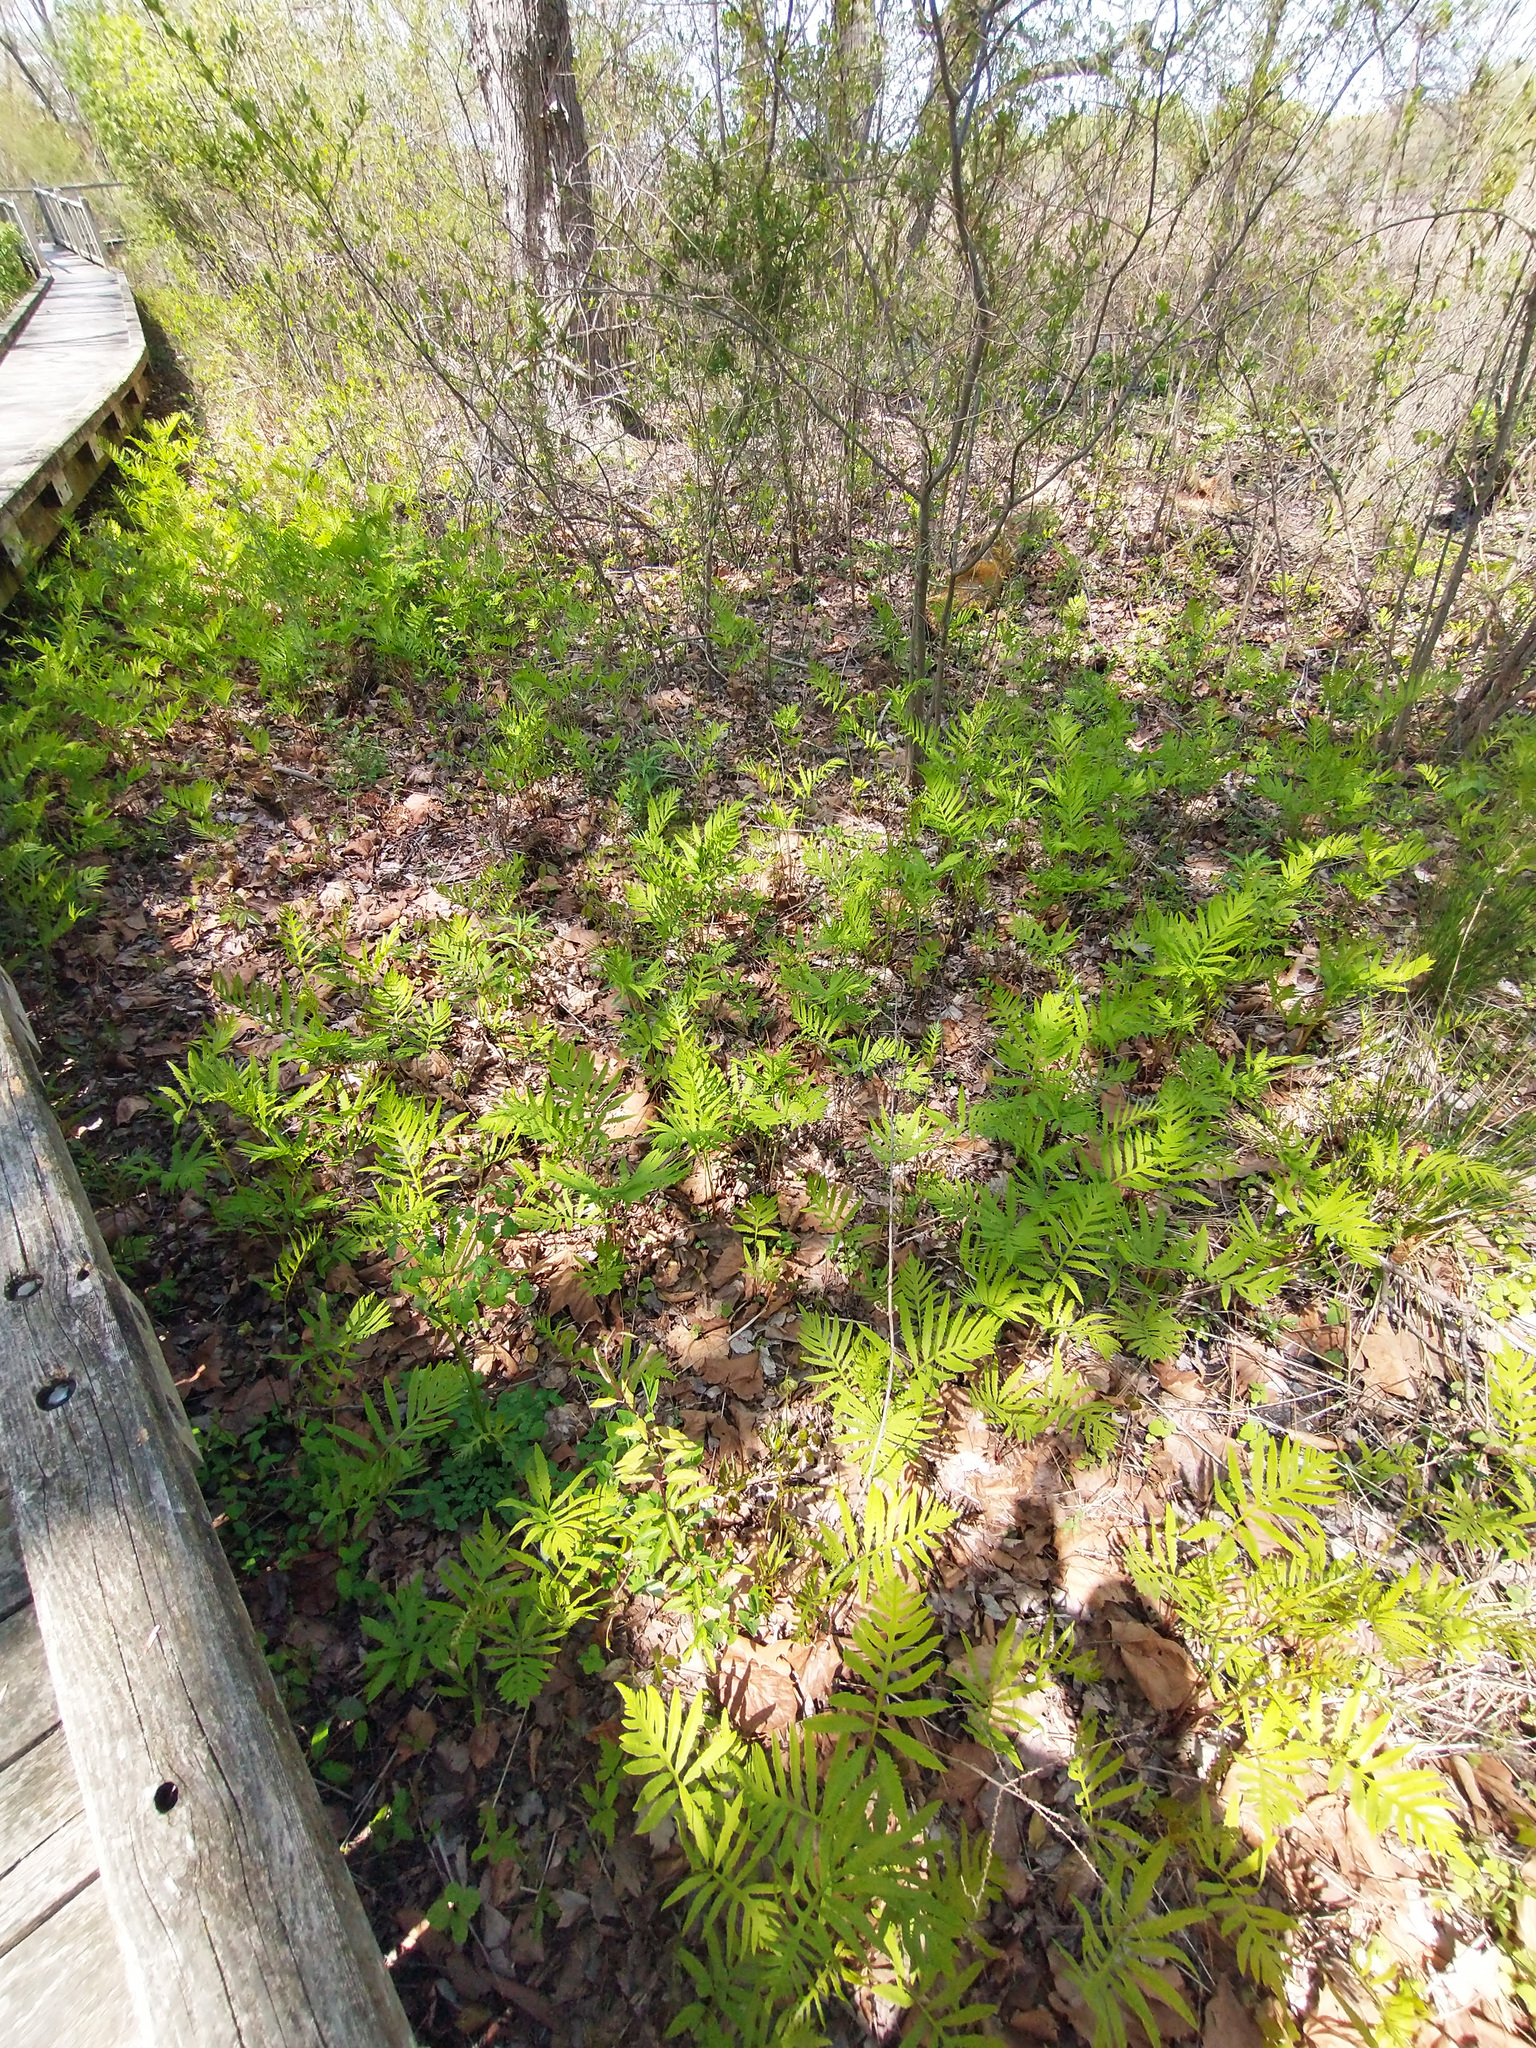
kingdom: Plantae
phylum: Tracheophyta
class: Polypodiopsida
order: Polypodiales
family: Onocleaceae
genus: Onoclea
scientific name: Onoclea sensibilis
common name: Sensitive fern
